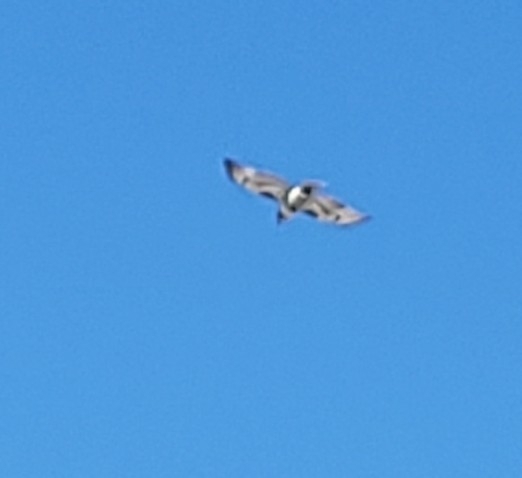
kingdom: Animalia
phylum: Chordata
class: Aves
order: Accipitriformes
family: Accipitridae
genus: Buteo
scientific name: Buteo jamaicensis
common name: Red-tailed hawk
